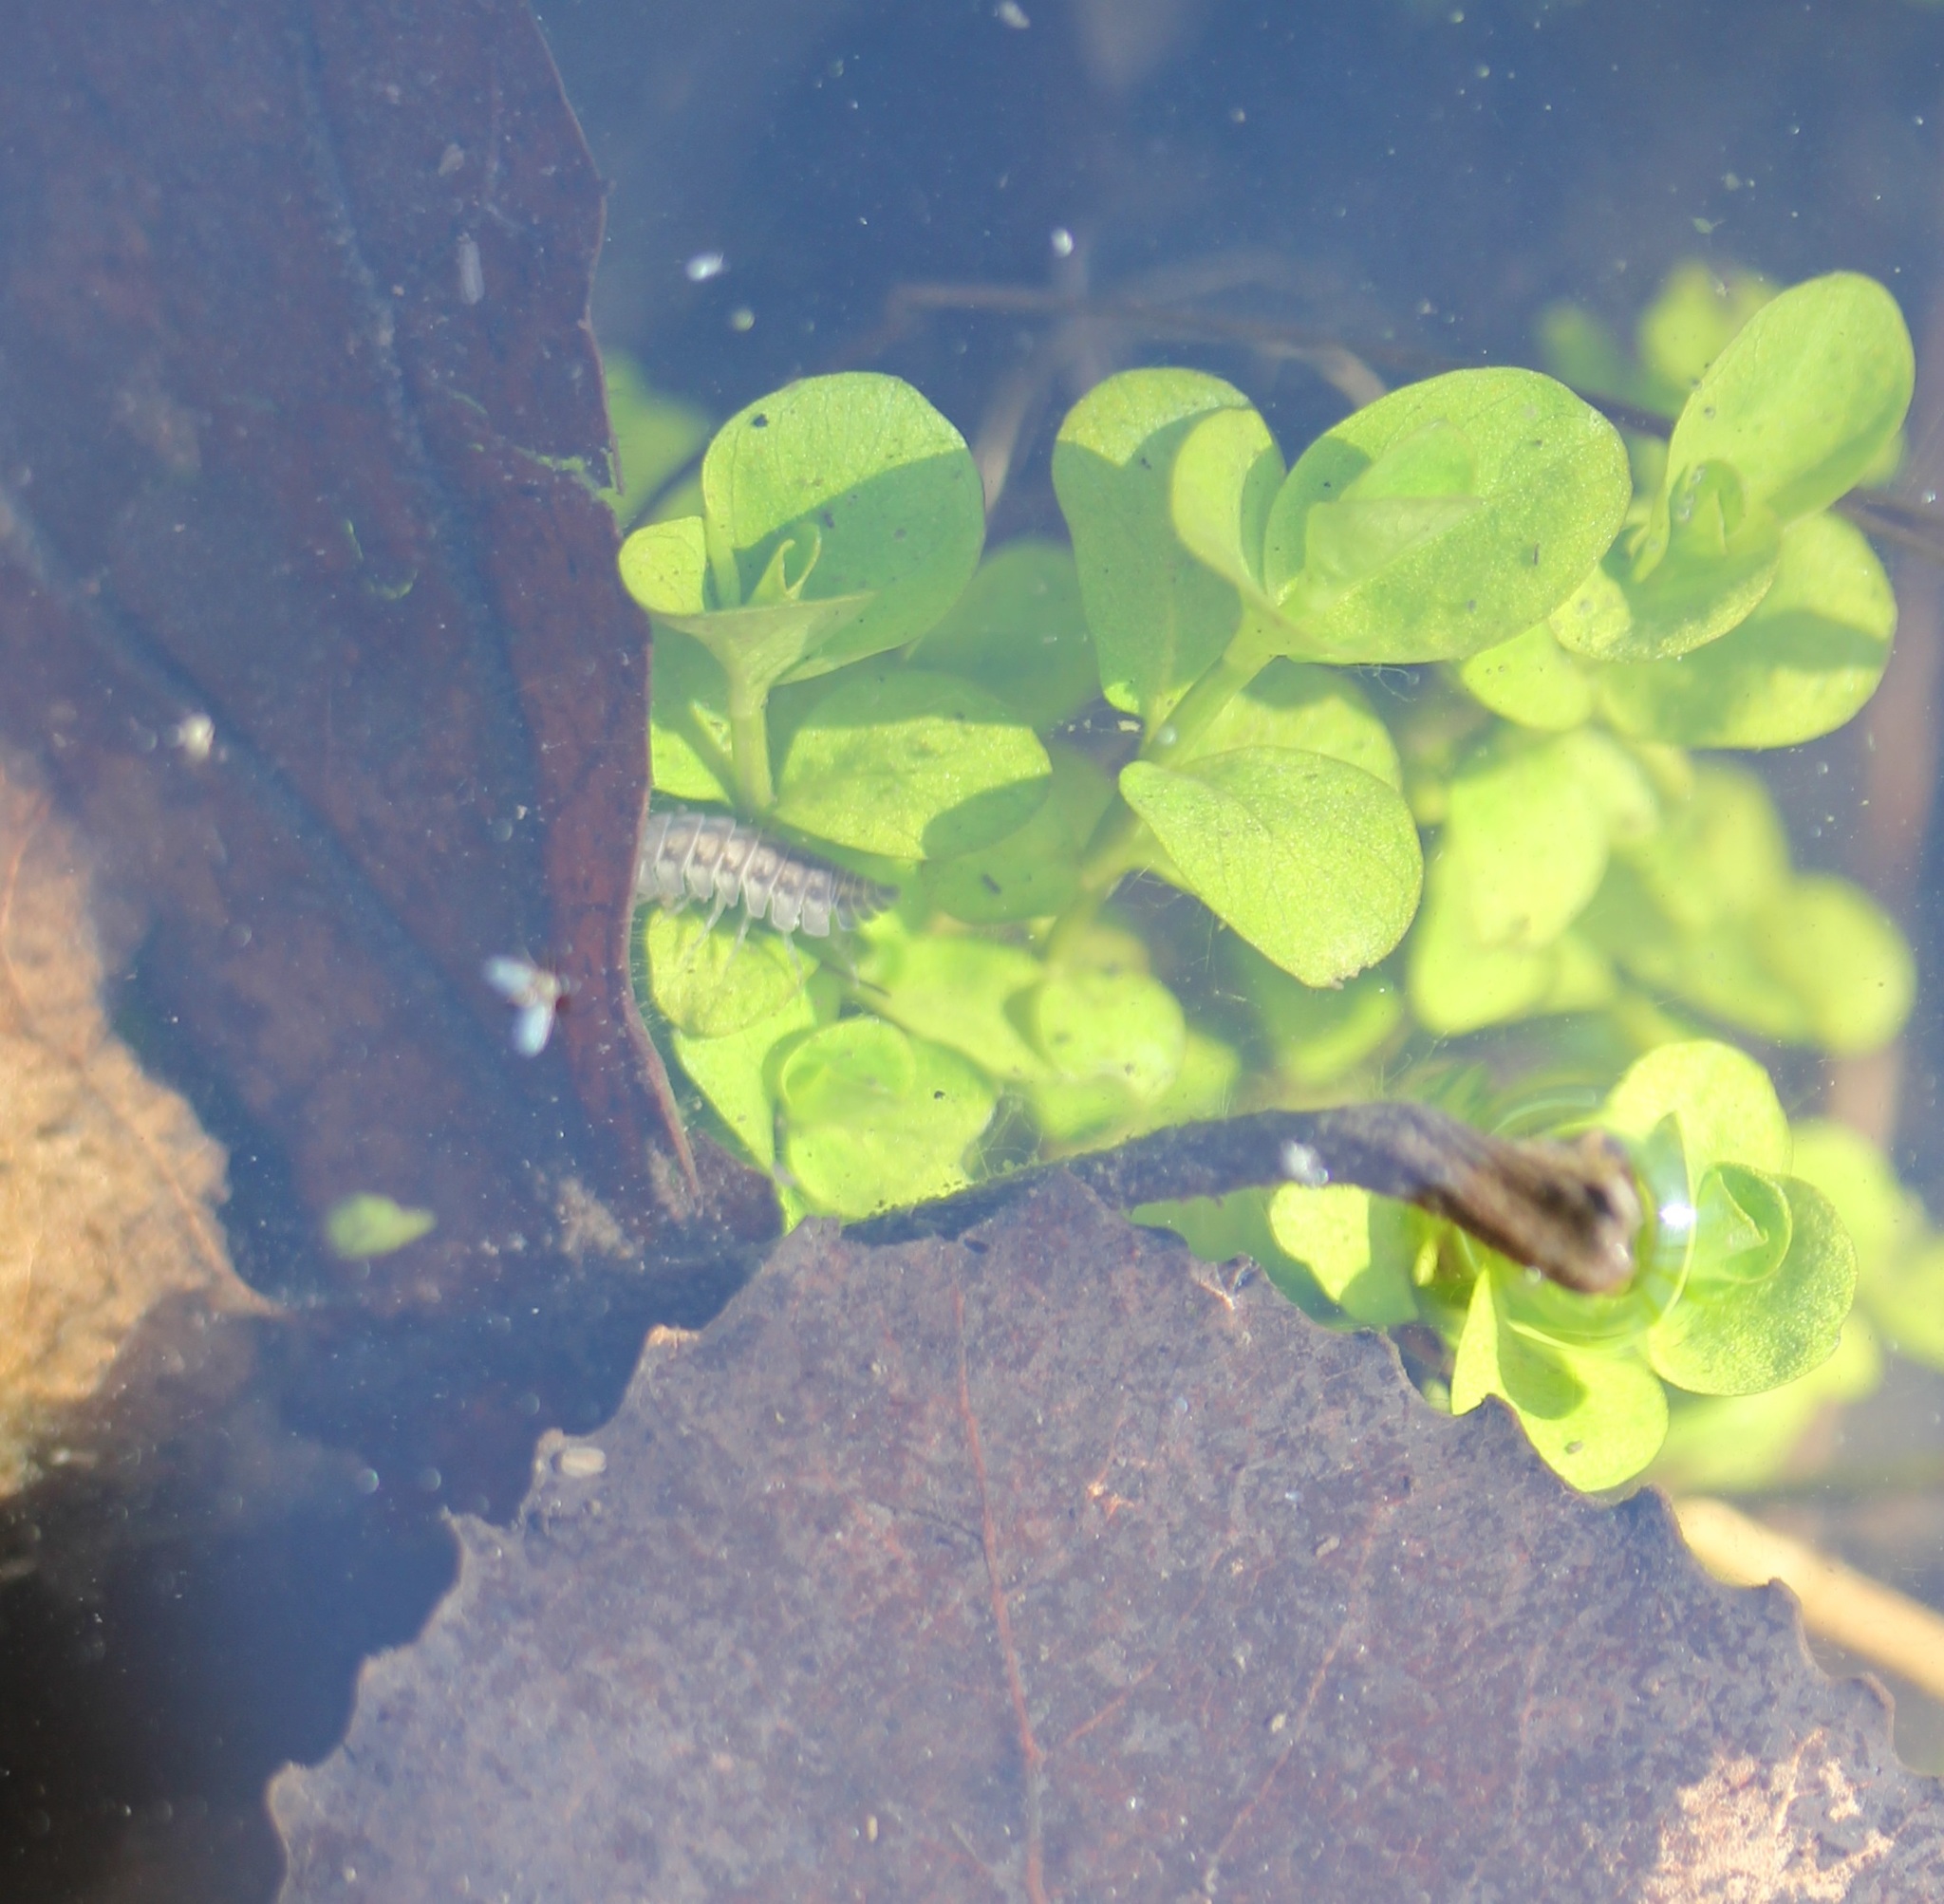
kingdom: Animalia
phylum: Arthropoda
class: Malacostraca
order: Isopoda
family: Armadillidiidae
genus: Armadillidium
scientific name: Armadillidium nasatum
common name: Isopod
